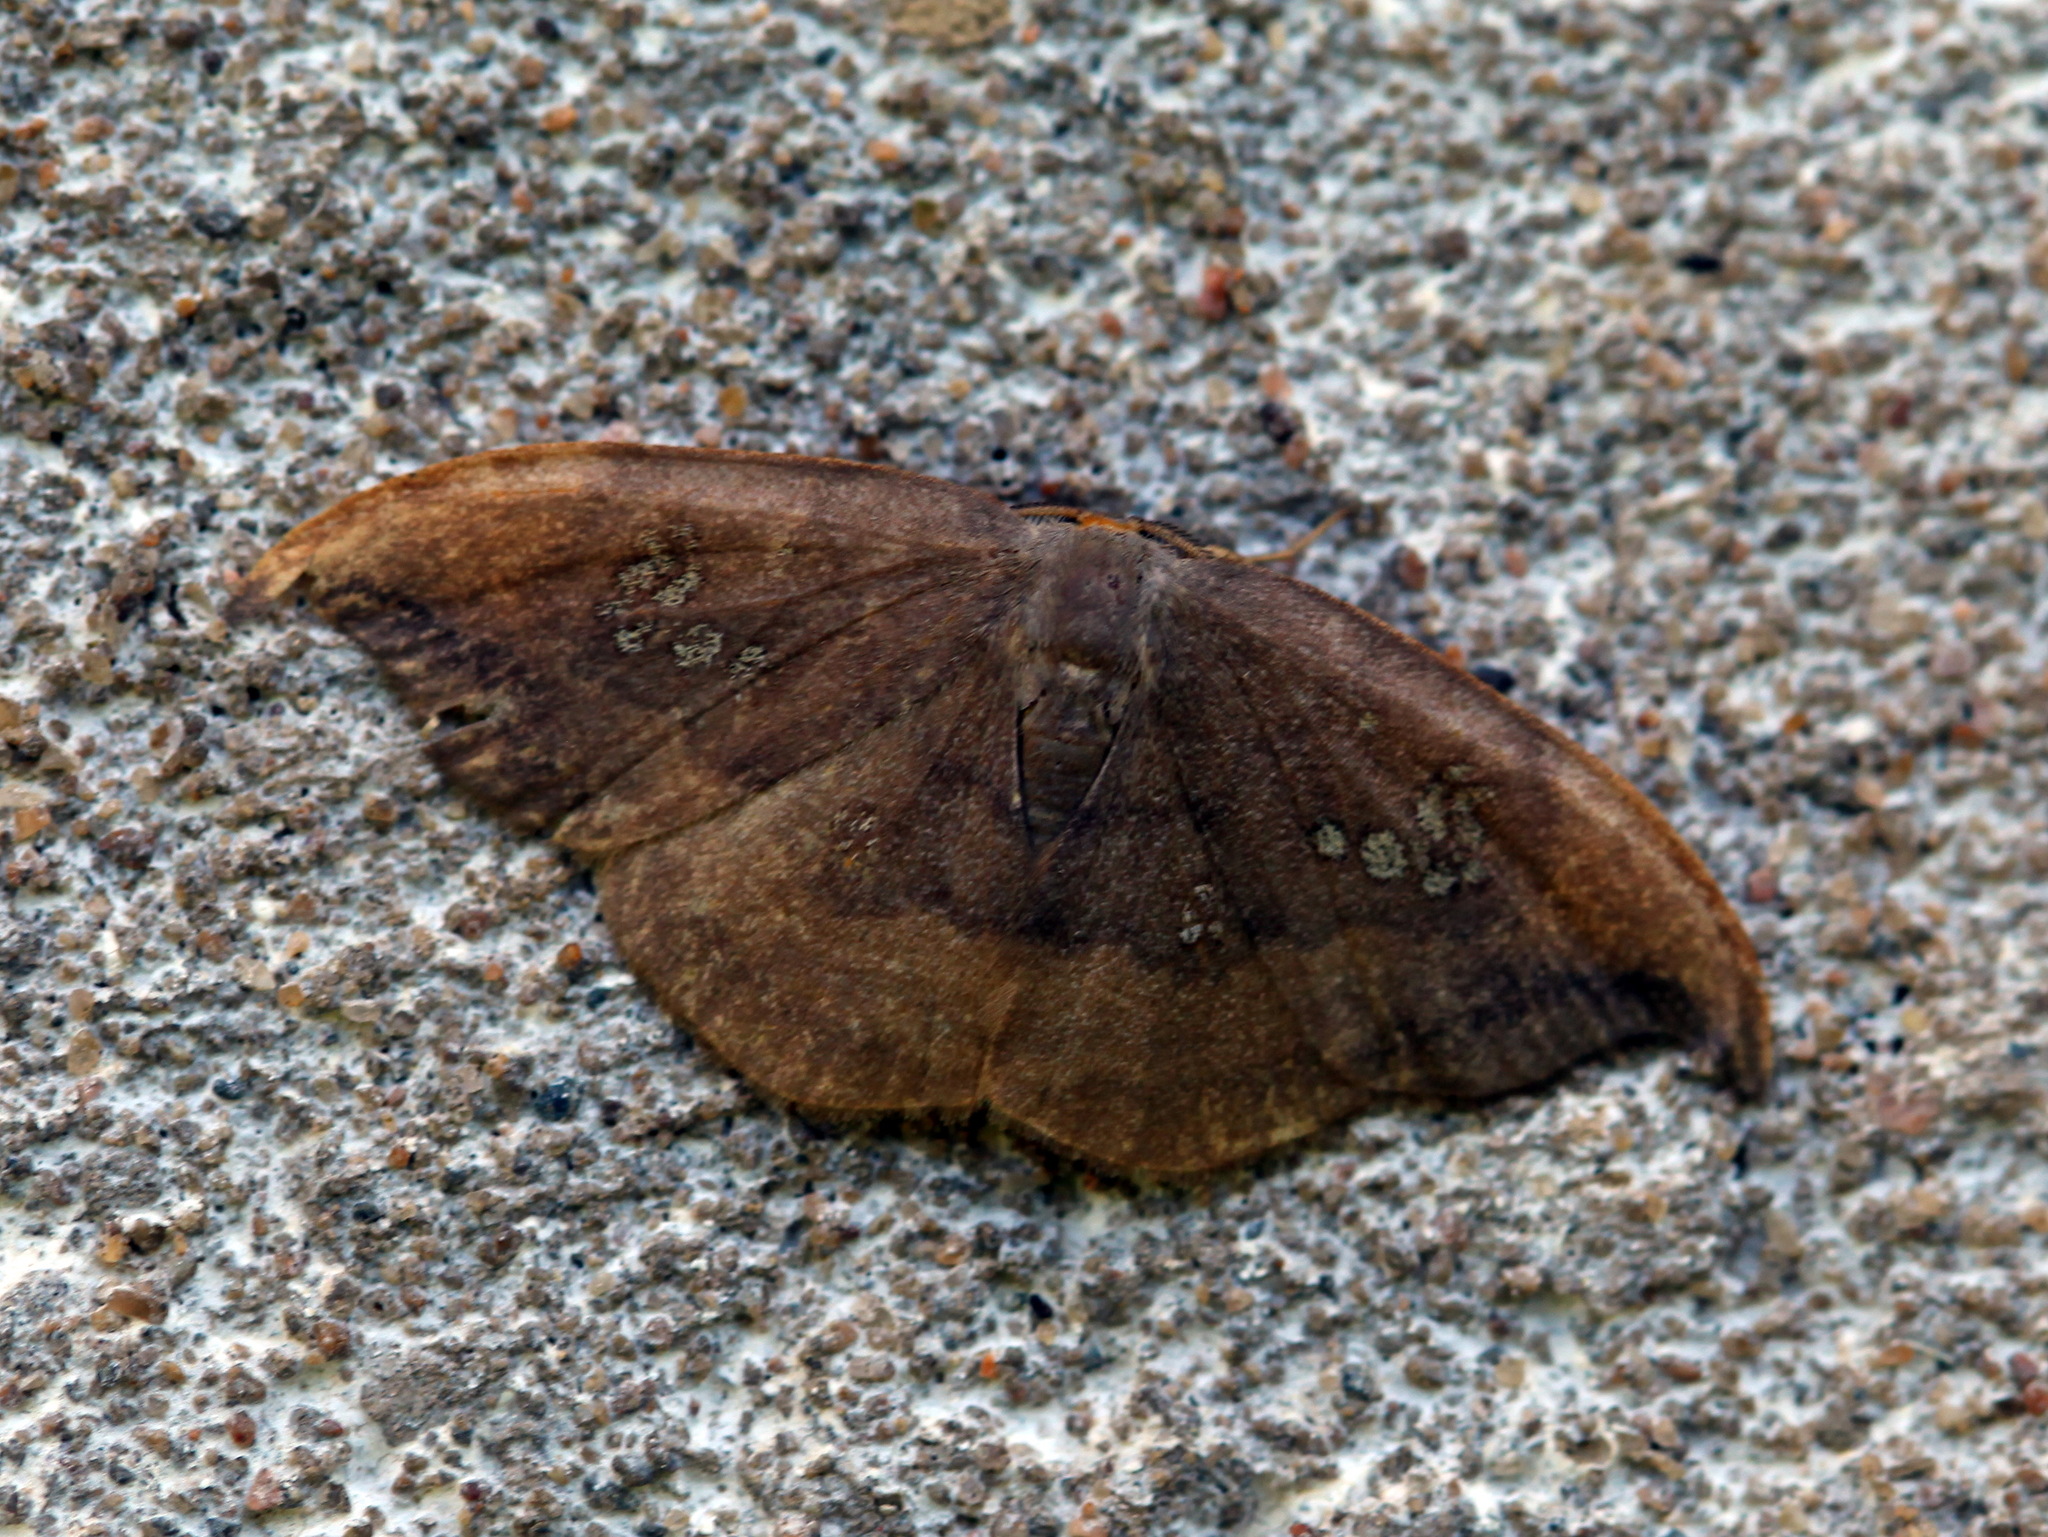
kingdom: Animalia
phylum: Arthropoda
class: Insecta
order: Lepidoptera
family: Drepanidae
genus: Agnidra
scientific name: Agnidra scabiosa
